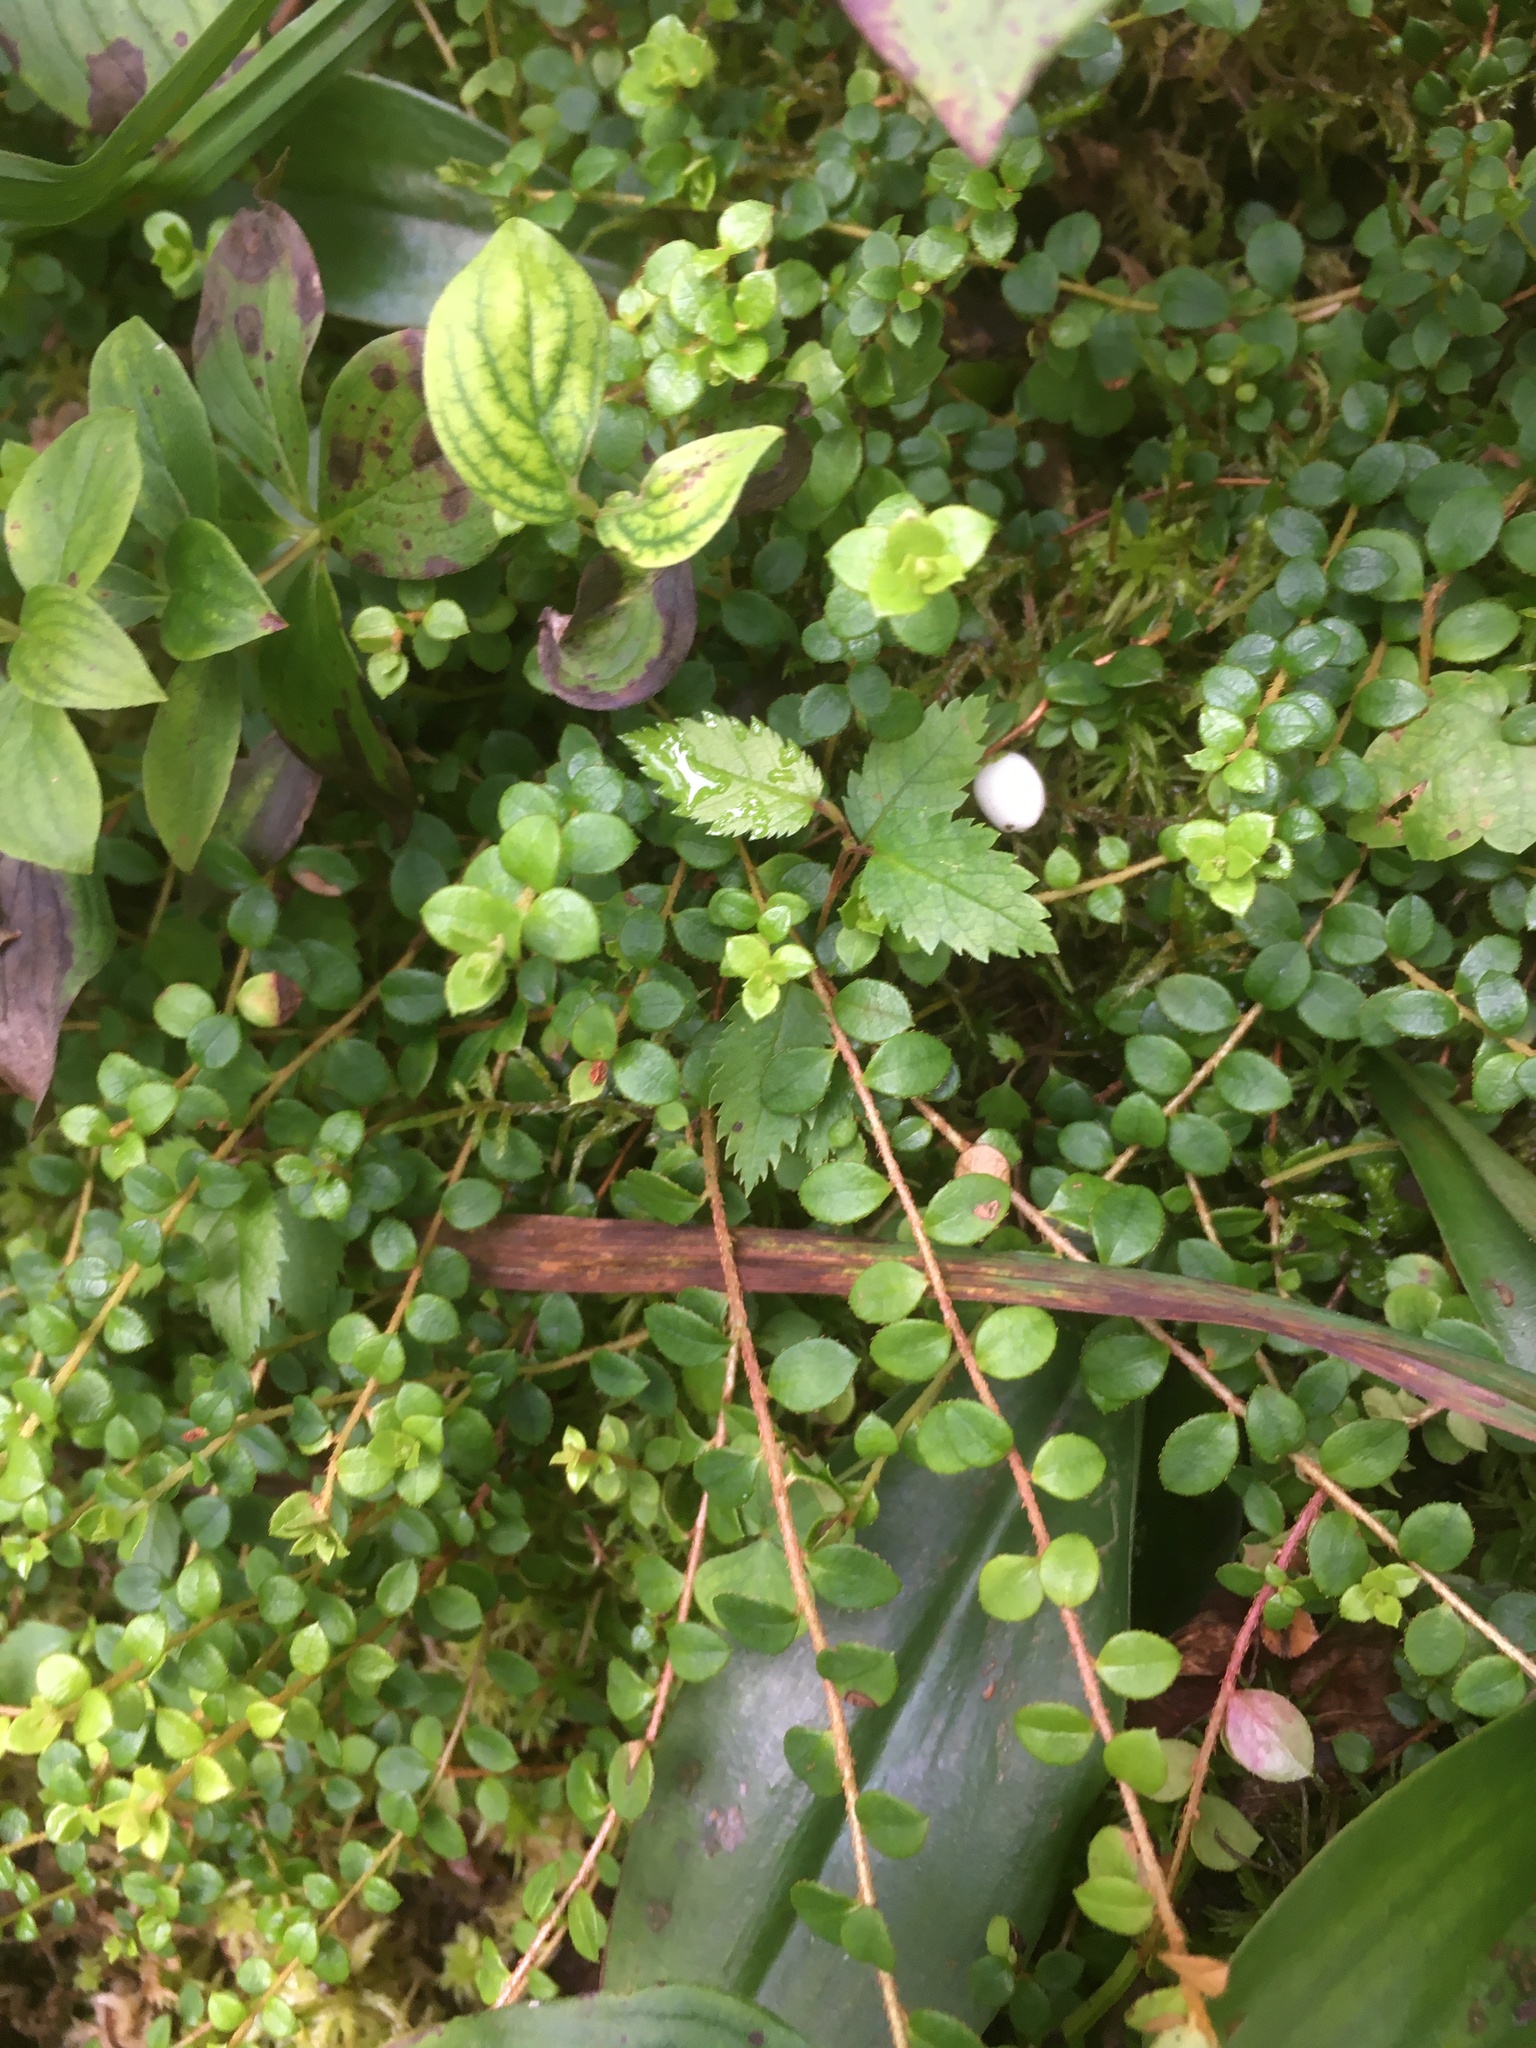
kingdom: Plantae
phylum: Tracheophyta
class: Magnoliopsida
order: Ericales
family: Ericaceae
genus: Gaultheria
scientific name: Gaultheria hispidula
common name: Cancer wintergreen
